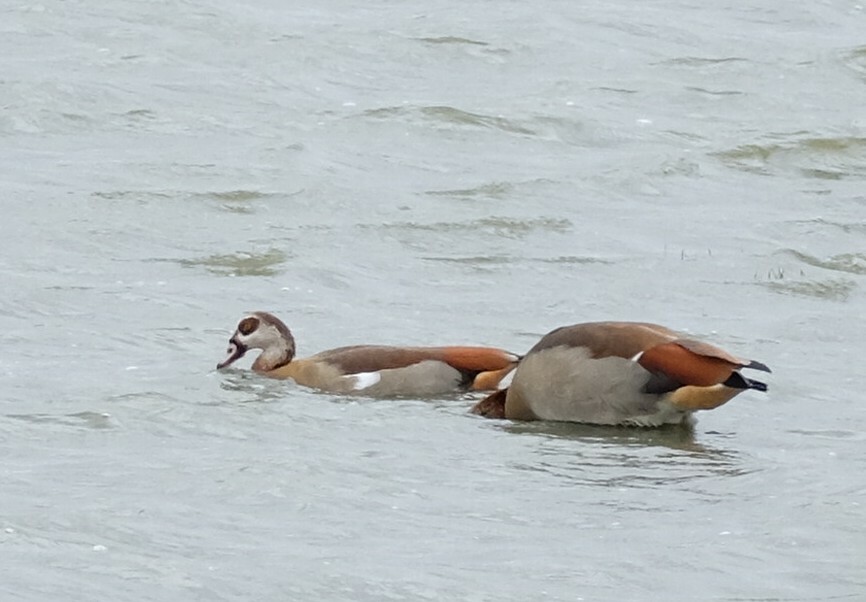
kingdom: Animalia
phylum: Chordata
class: Aves
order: Anseriformes
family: Anatidae
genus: Alopochen
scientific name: Alopochen aegyptiaca
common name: Egyptian goose
